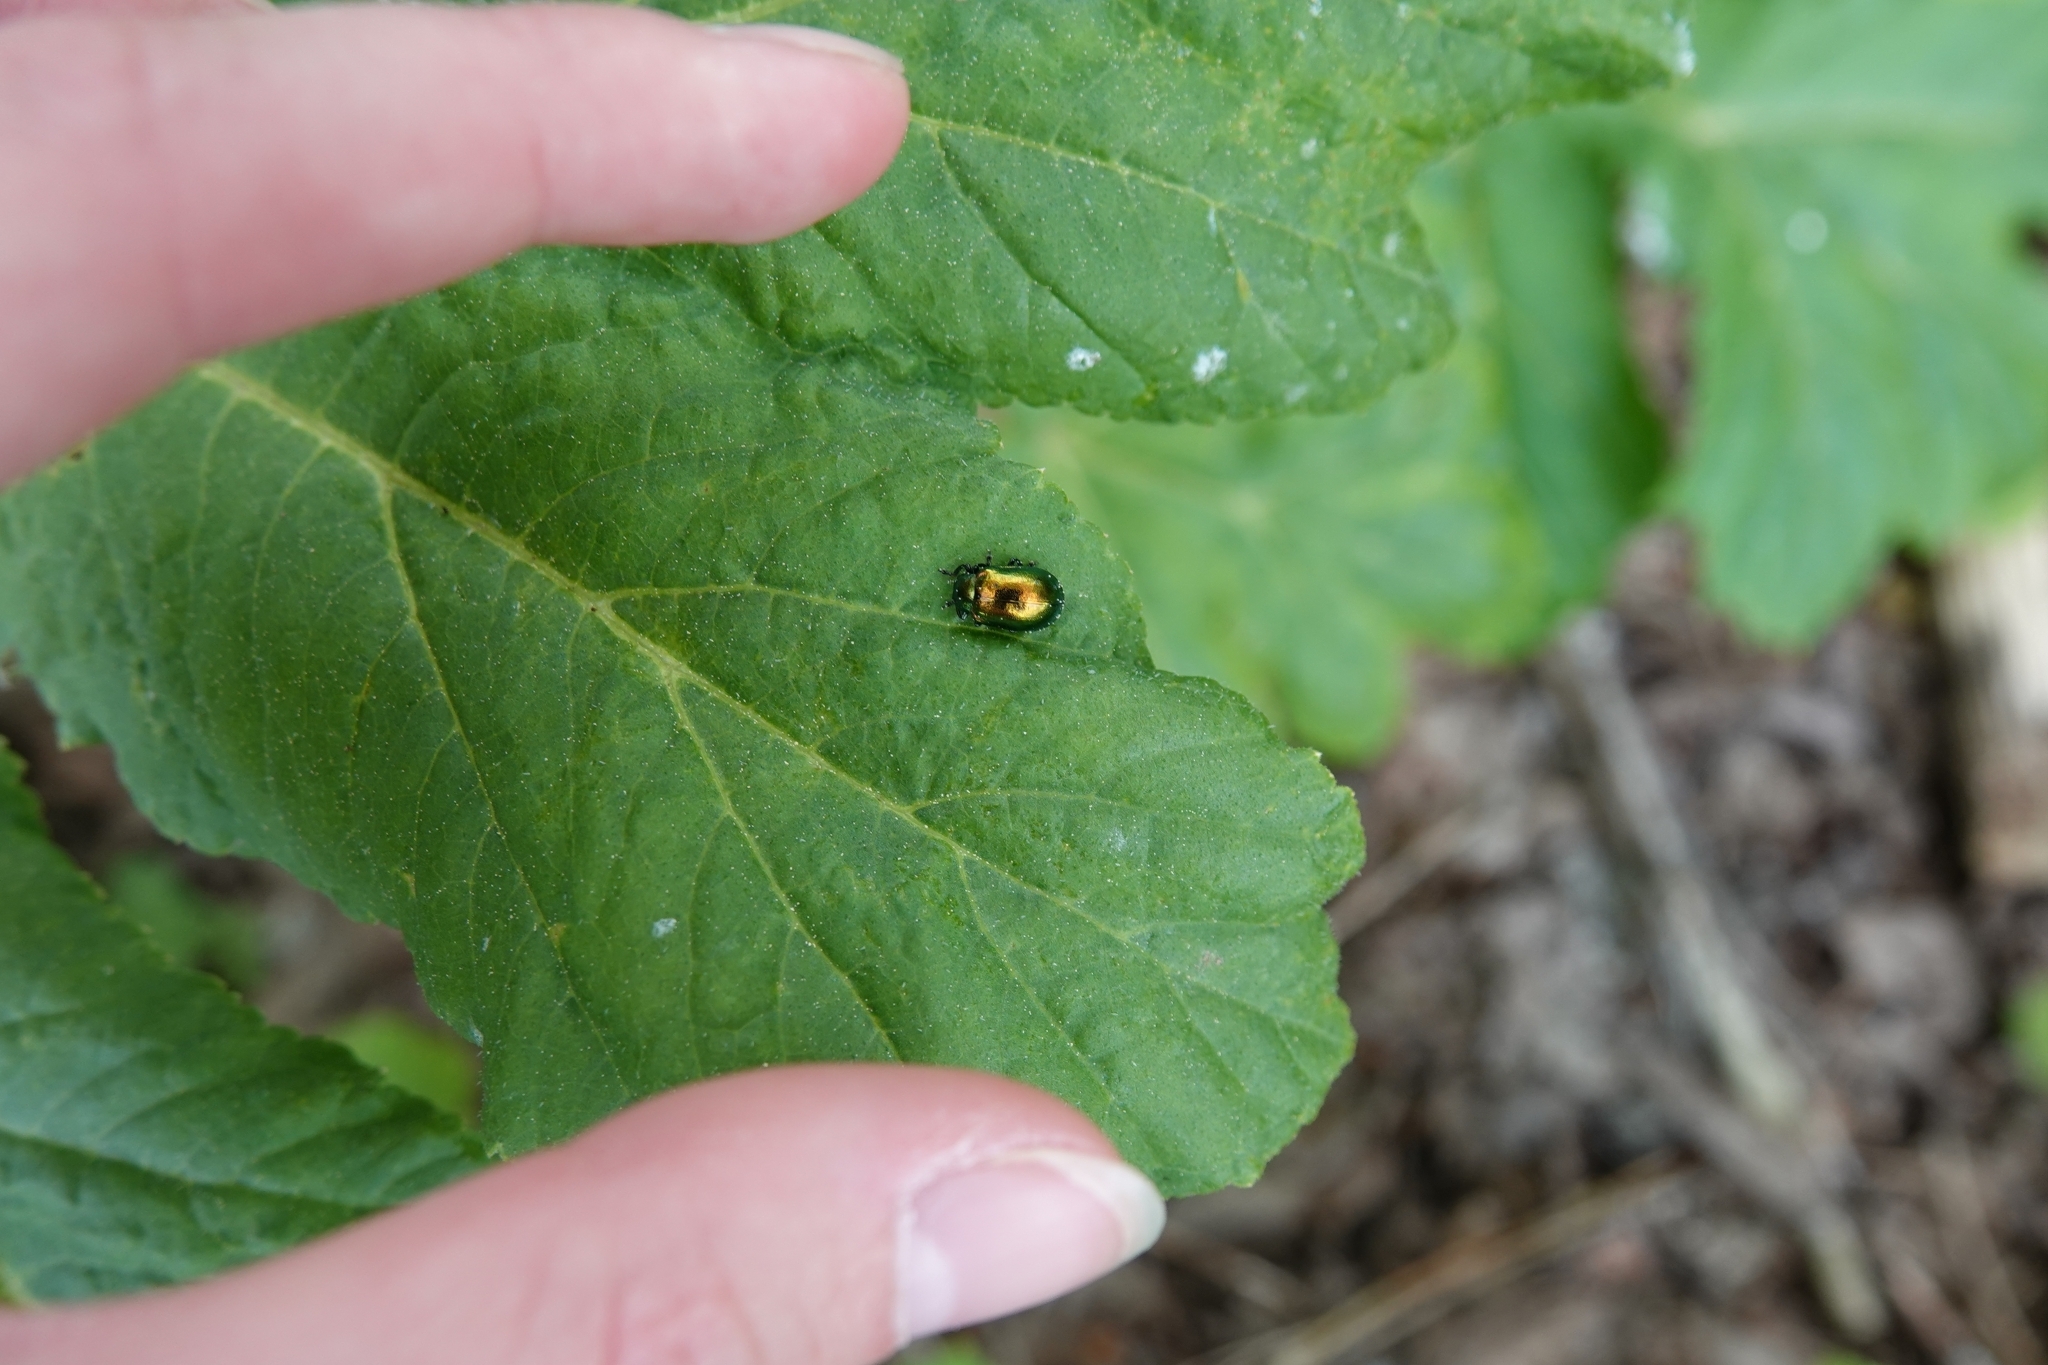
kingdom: Animalia
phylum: Arthropoda
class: Insecta
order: Coleoptera
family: Chrysomelidae
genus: Plagiosterna
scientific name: Plagiosterna aenea
